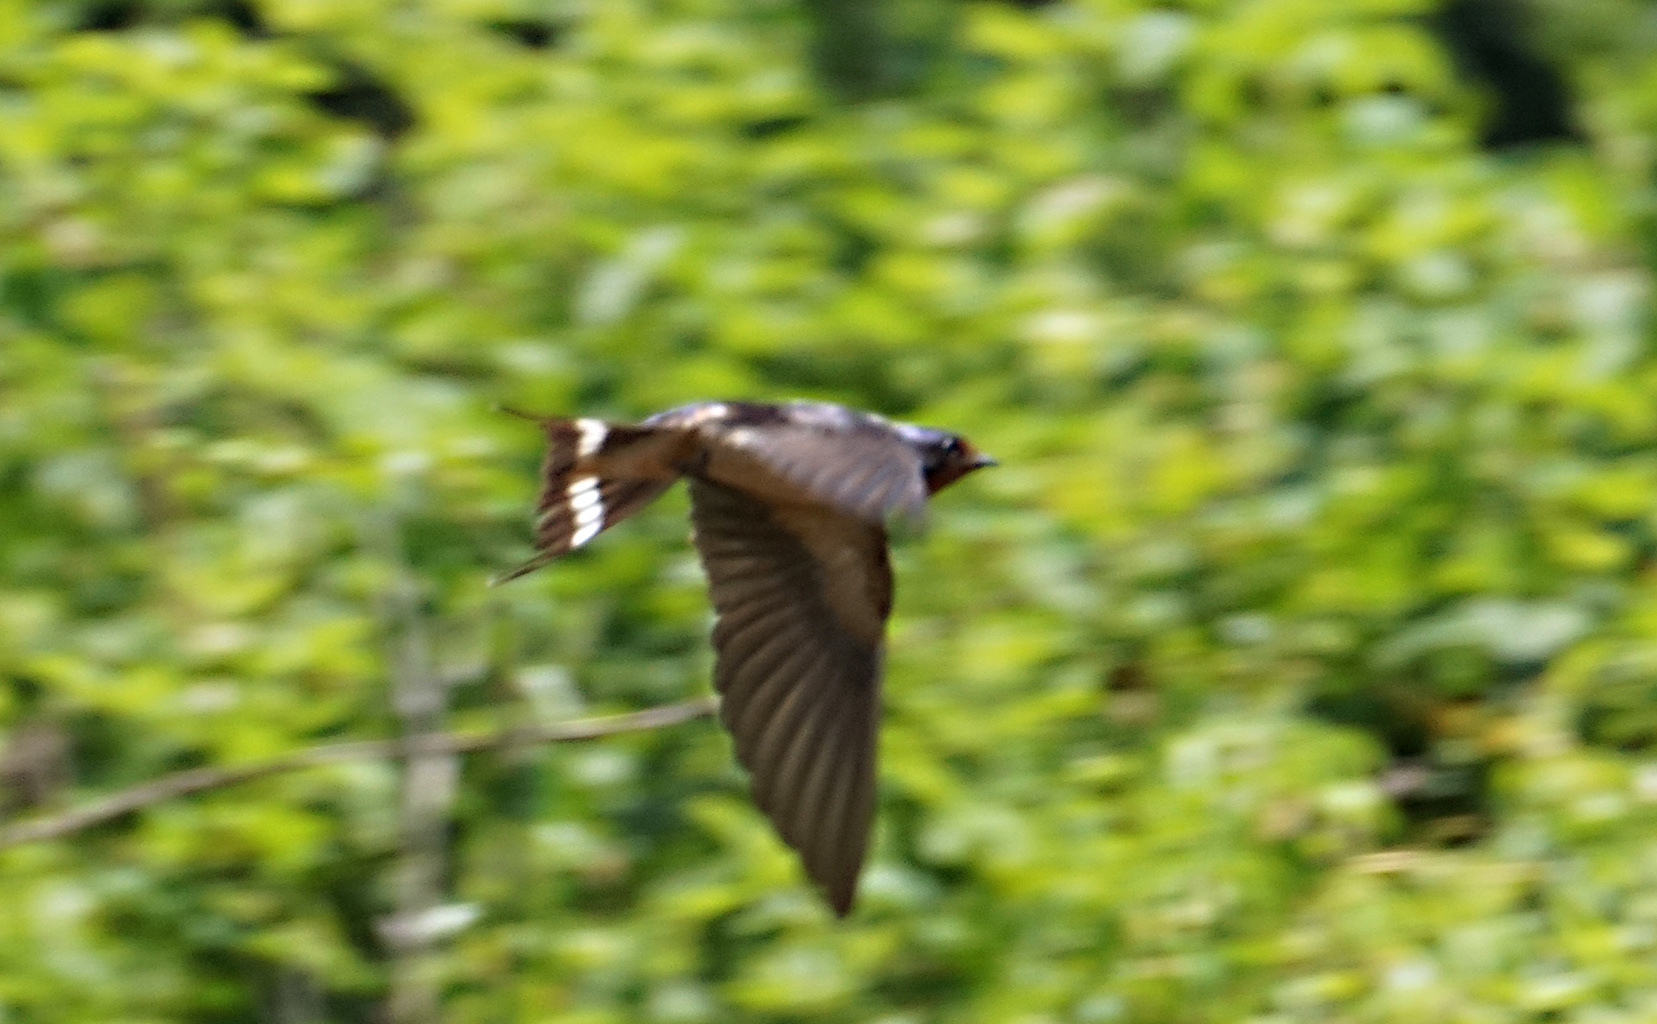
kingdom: Animalia
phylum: Chordata
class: Aves
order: Passeriformes
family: Hirundinidae
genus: Hirundo
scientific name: Hirundo rustica
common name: Barn swallow
